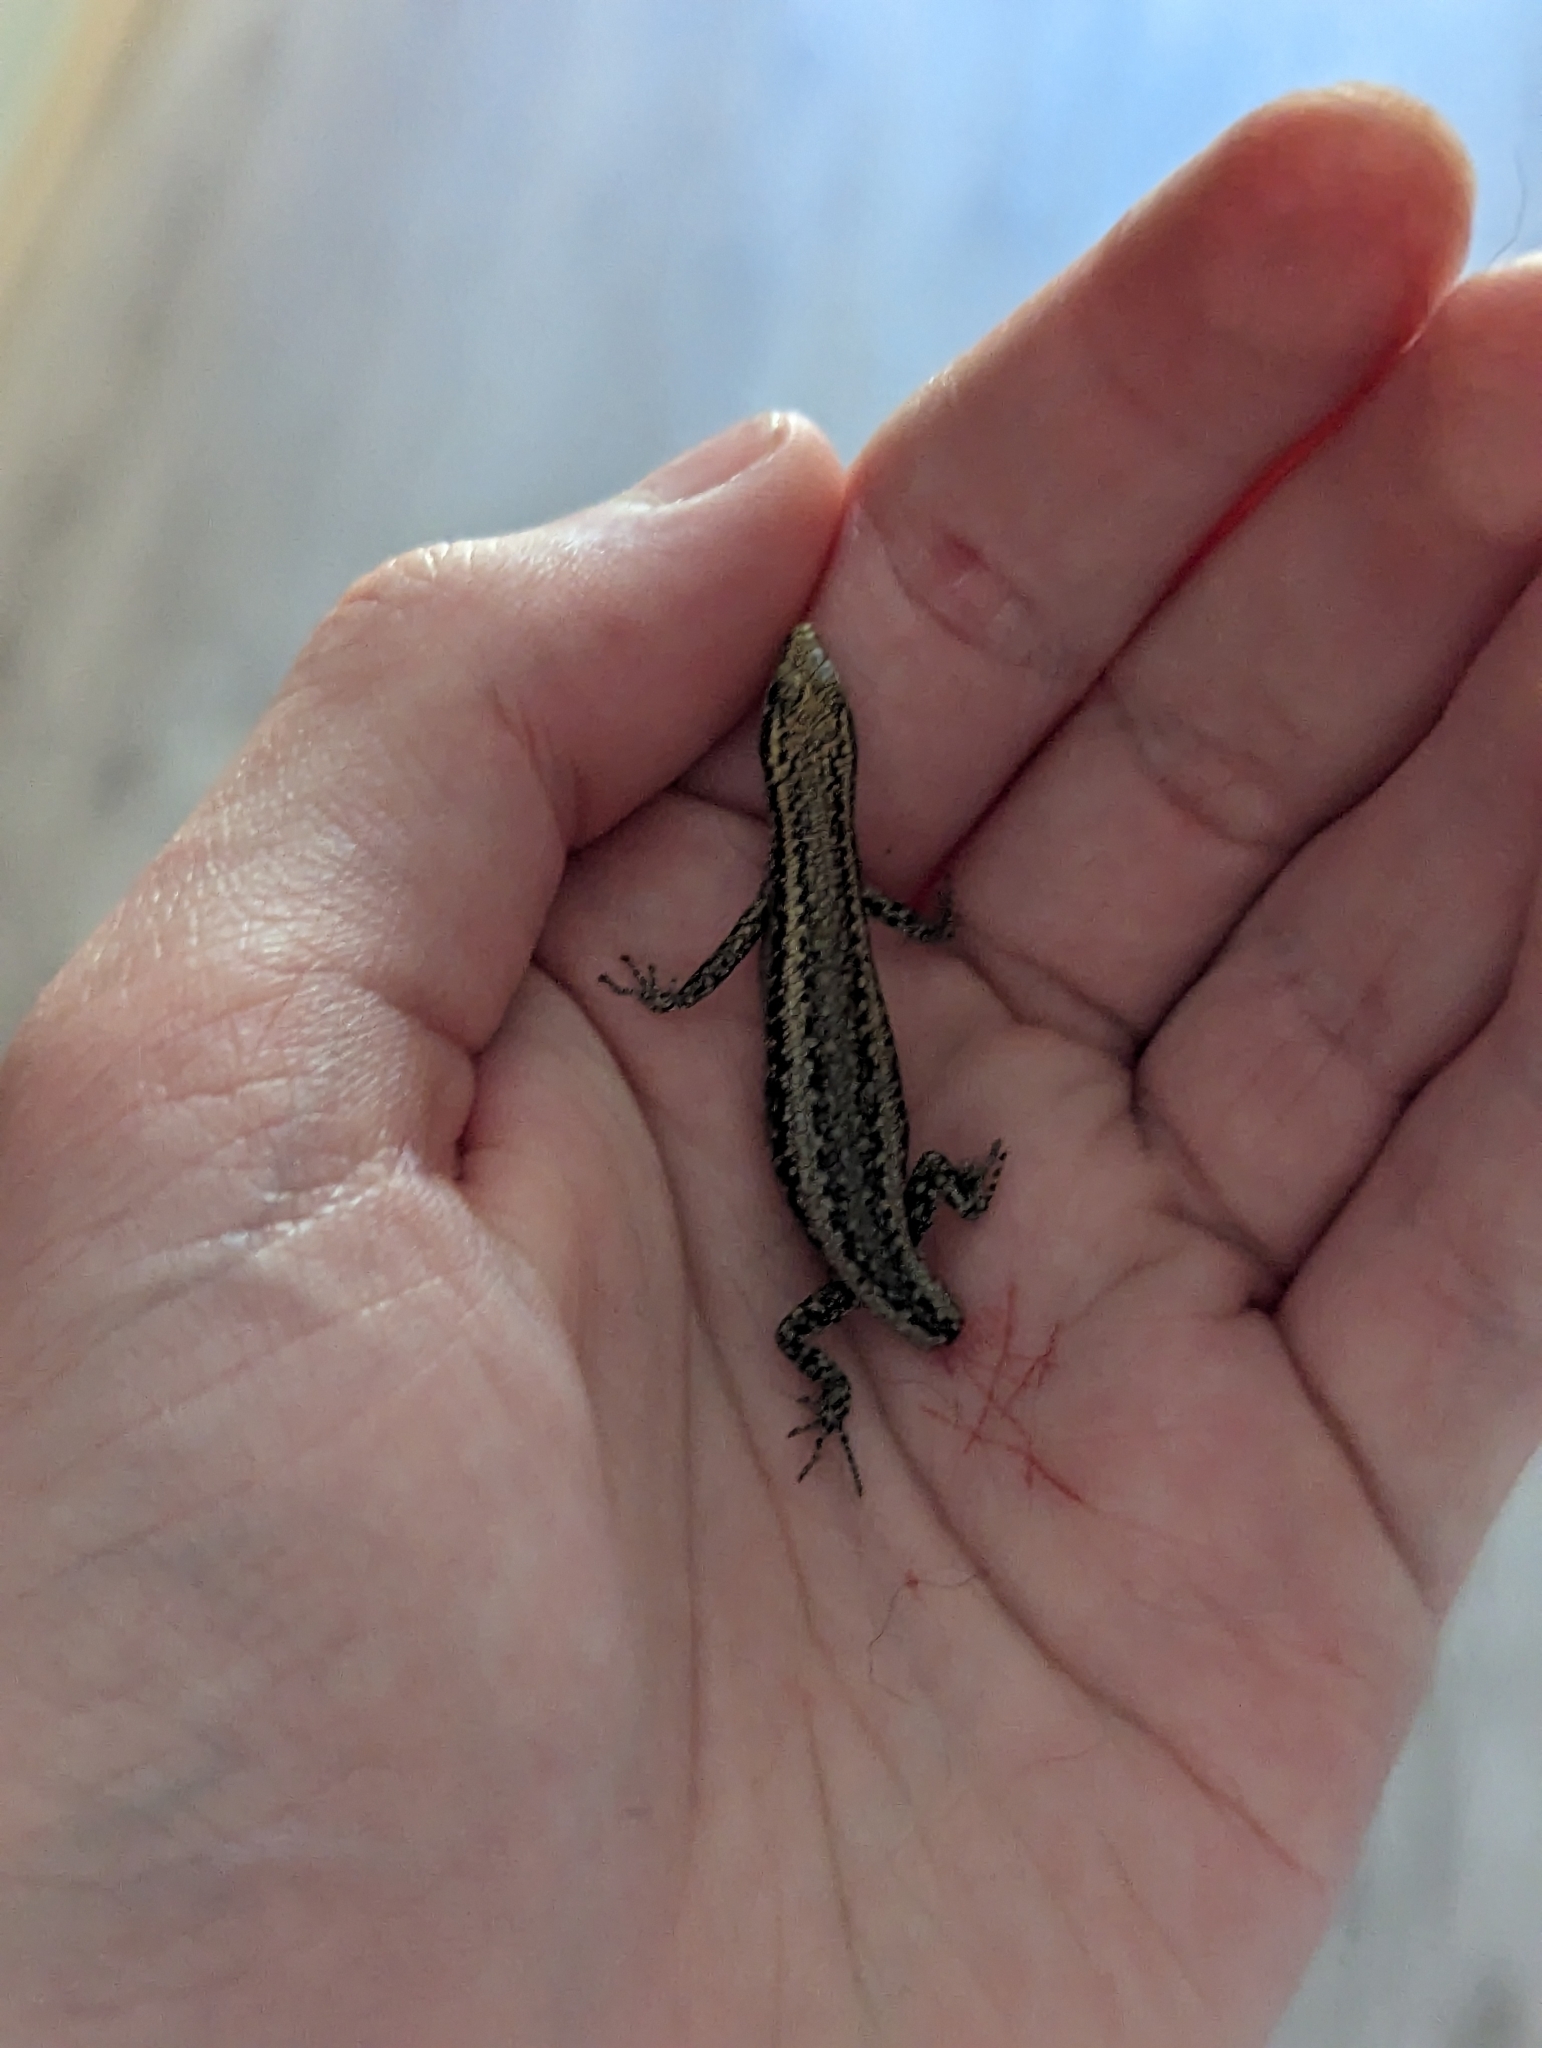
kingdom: Animalia
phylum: Chordata
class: Squamata
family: Scincidae
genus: Cryptoblepharus
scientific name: Cryptoblepharus buchananii
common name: Buchanan's snake-eyed skink
